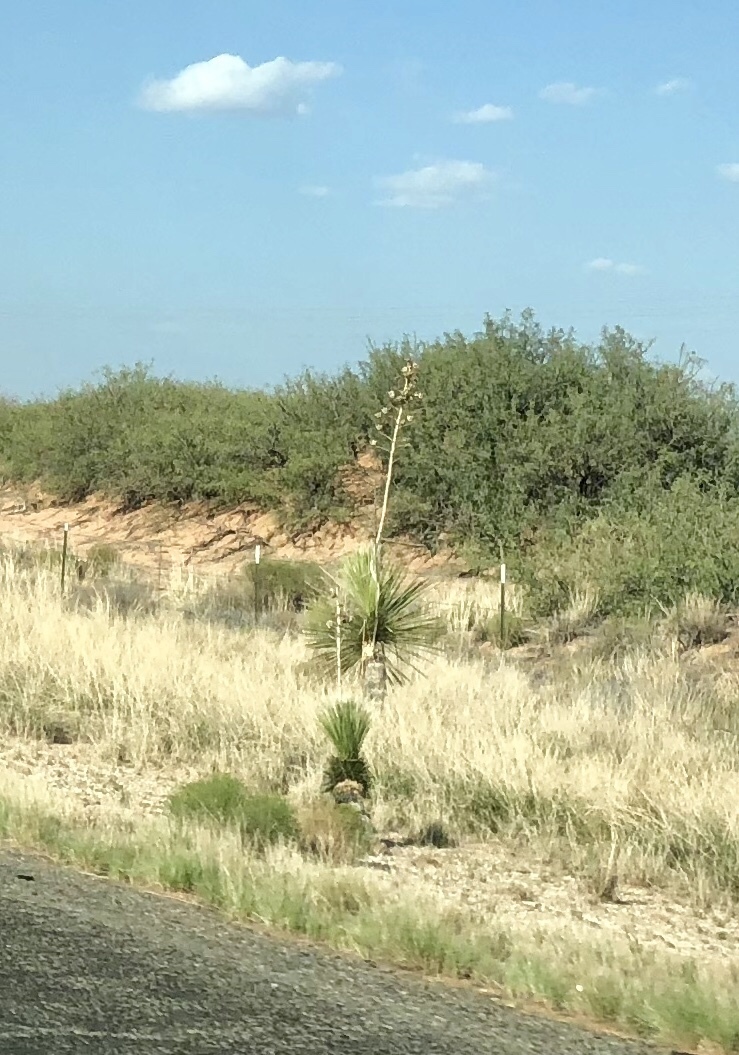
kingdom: Plantae
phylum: Tracheophyta
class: Liliopsida
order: Asparagales
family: Asparagaceae
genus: Yucca
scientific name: Yucca elata
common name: Palmella
